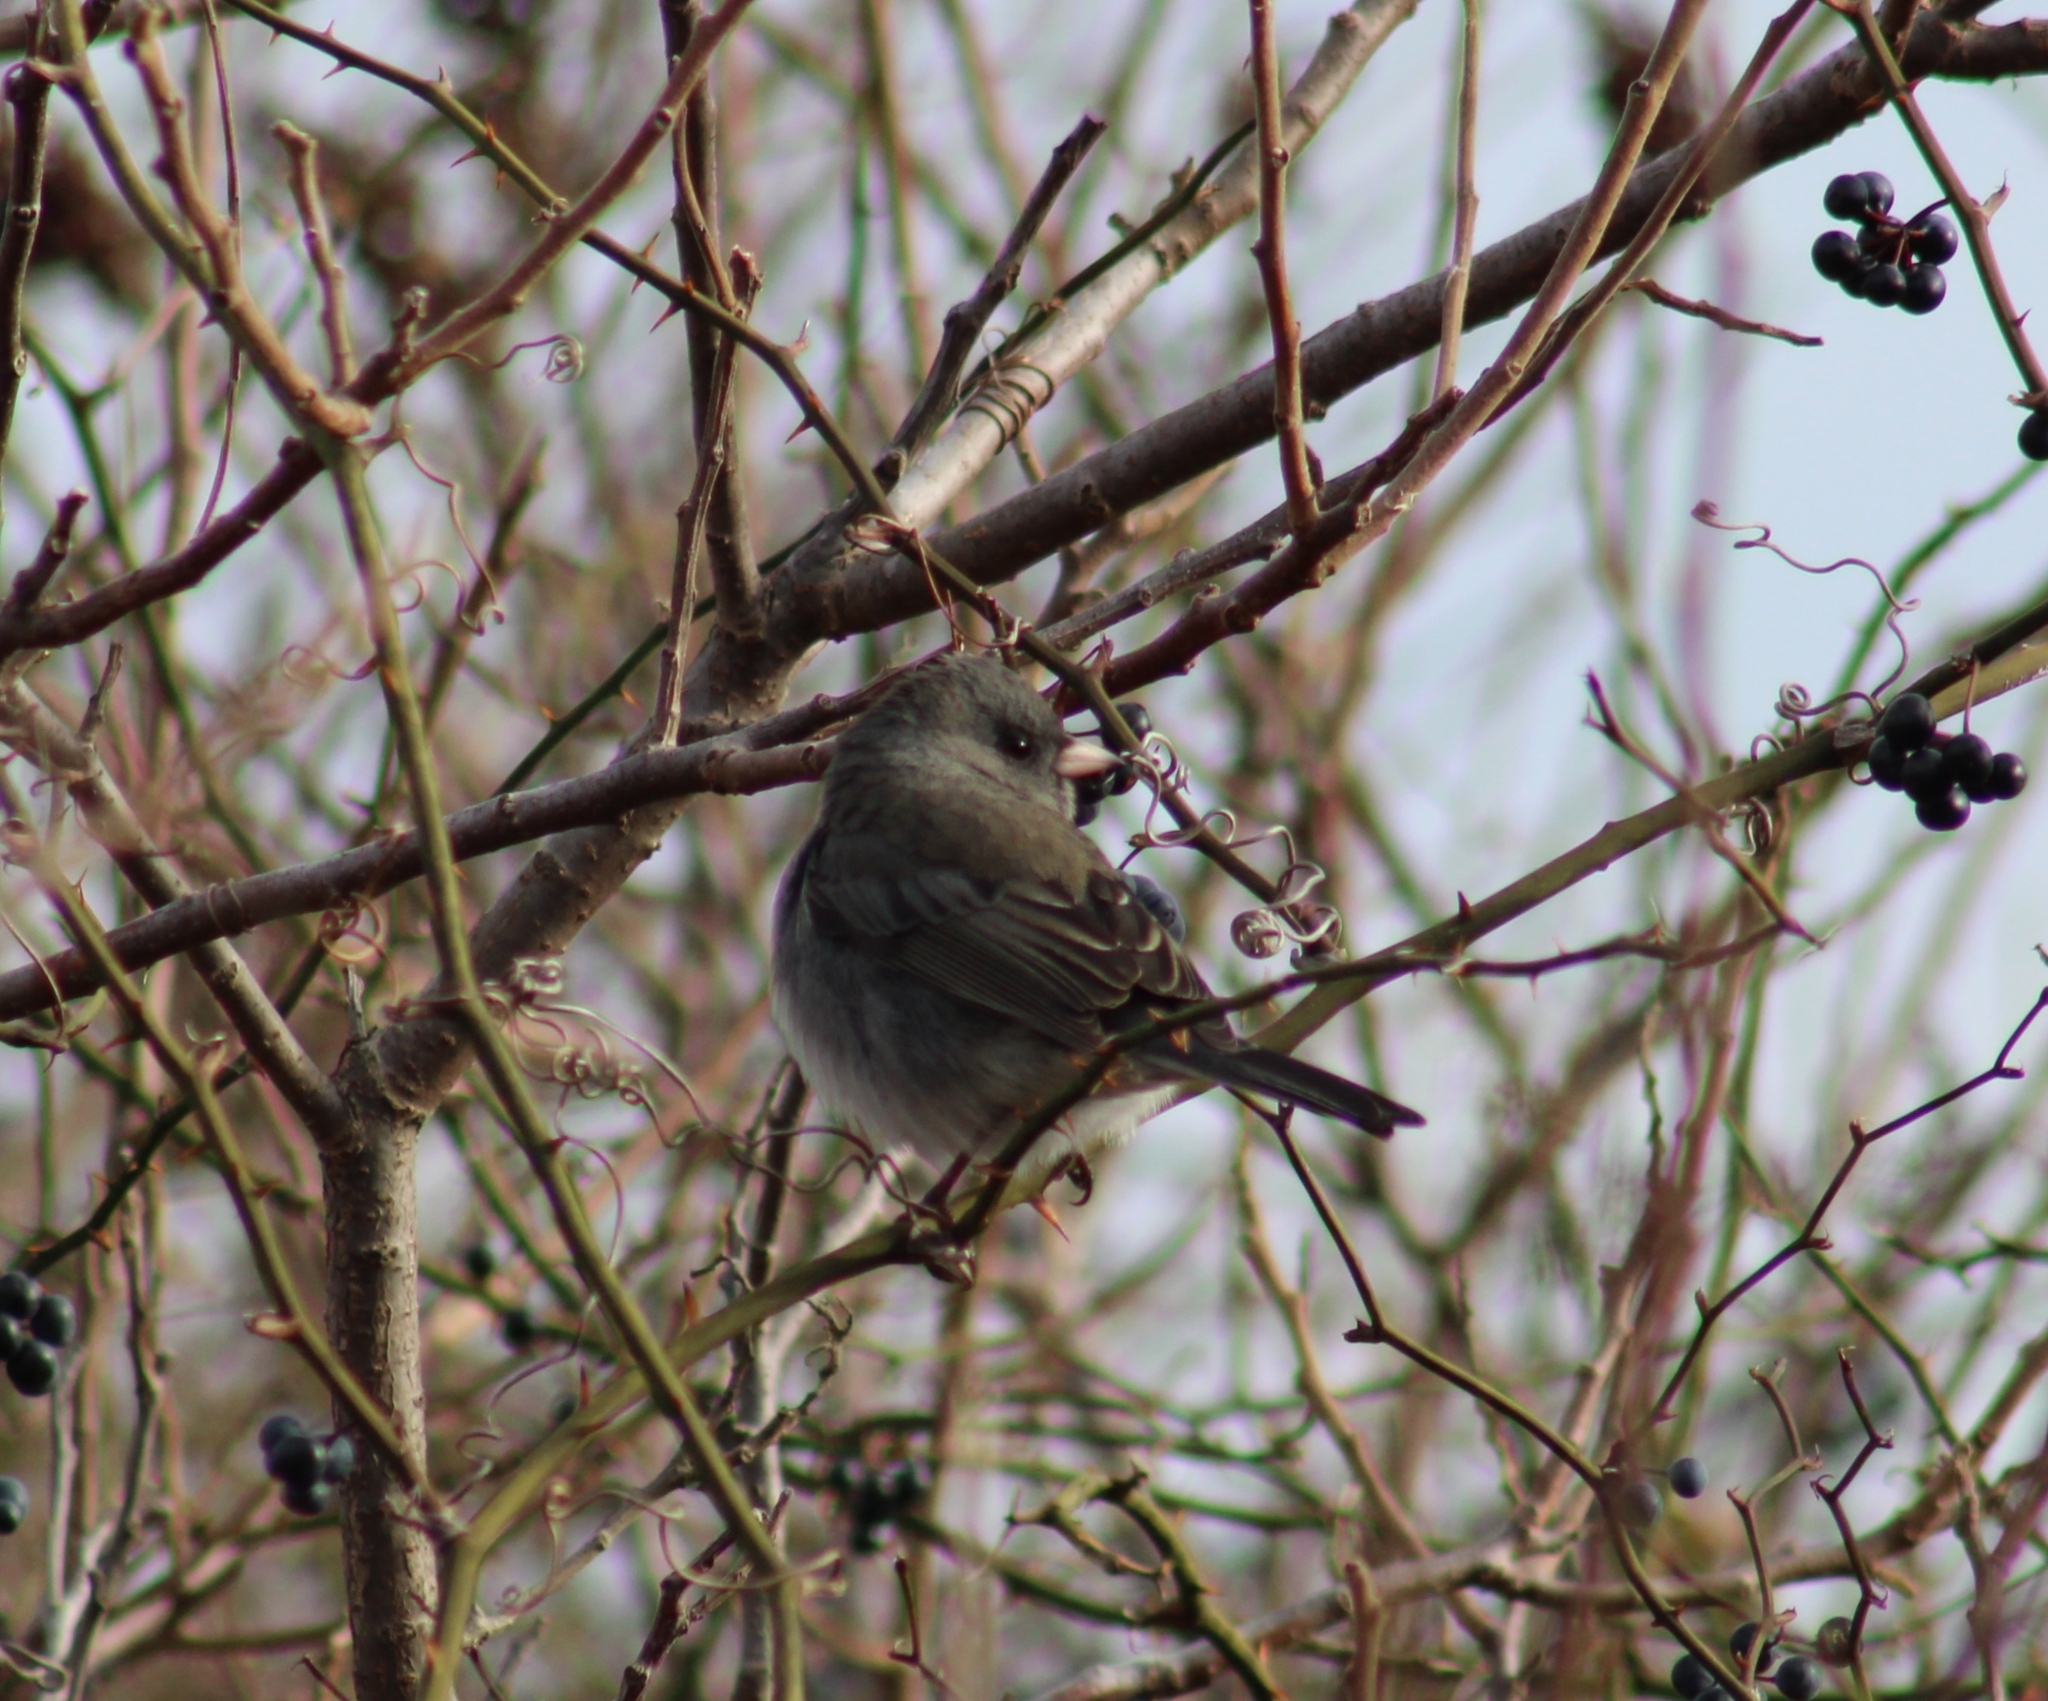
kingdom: Animalia
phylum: Chordata
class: Aves
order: Passeriformes
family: Passerellidae
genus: Junco
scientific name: Junco hyemalis
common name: Dark-eyed junco
